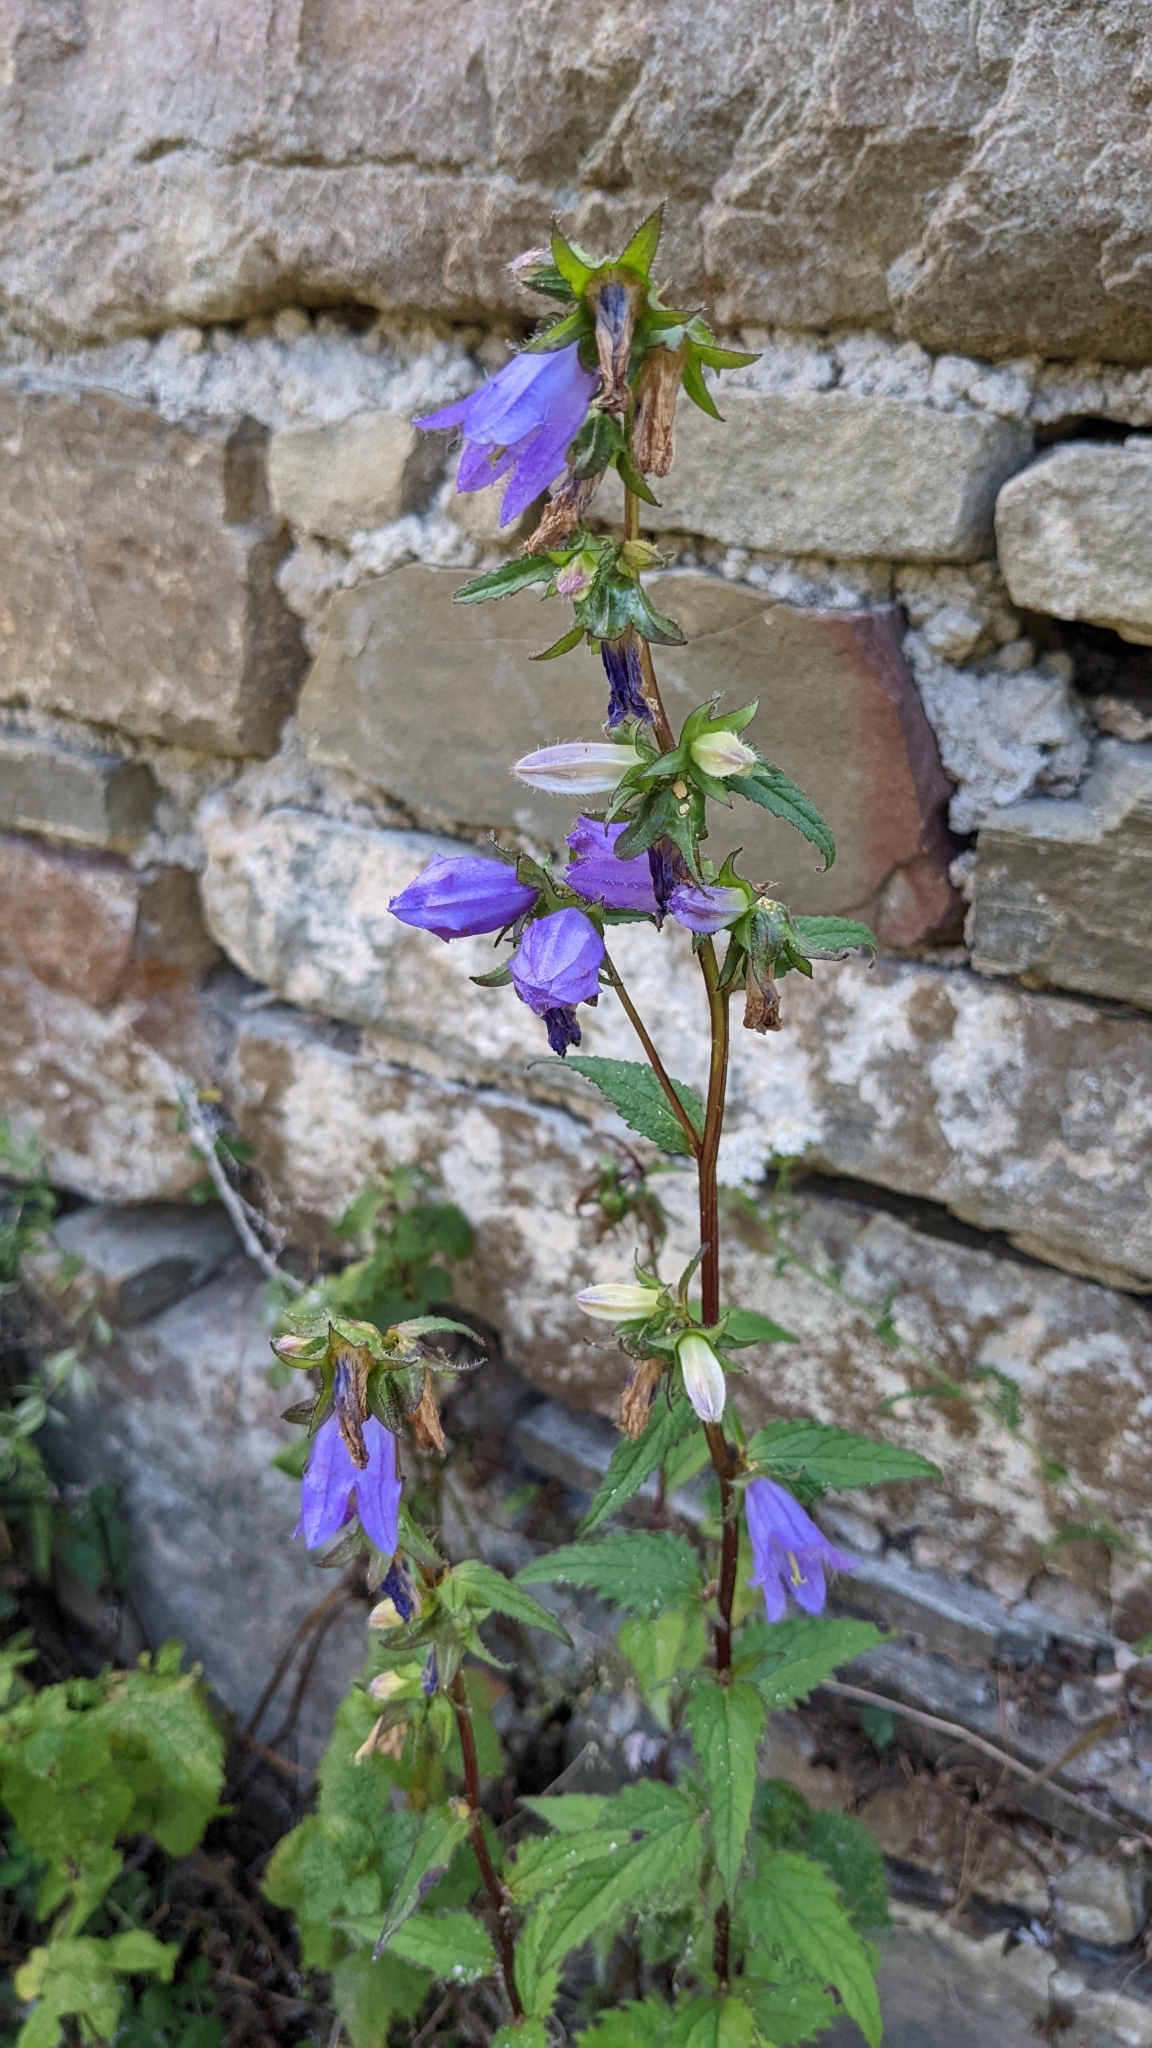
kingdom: Plantae
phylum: Tracheophyta
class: Magnoliopsida
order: Asterales
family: Campanulaceae
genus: Campanula
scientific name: Campanula trachelium
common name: Nettle-leaved bellflower
